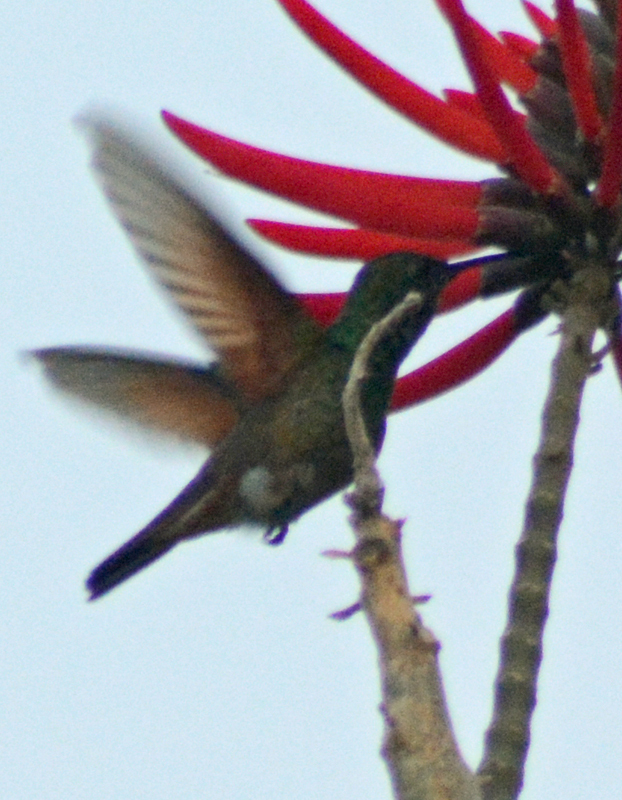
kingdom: Animalia
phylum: Chordata
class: Aves
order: Apodiformes
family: Trochilidae
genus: Saucerottia
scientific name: Saucerottia beryllina
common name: Berylline hummingbird
